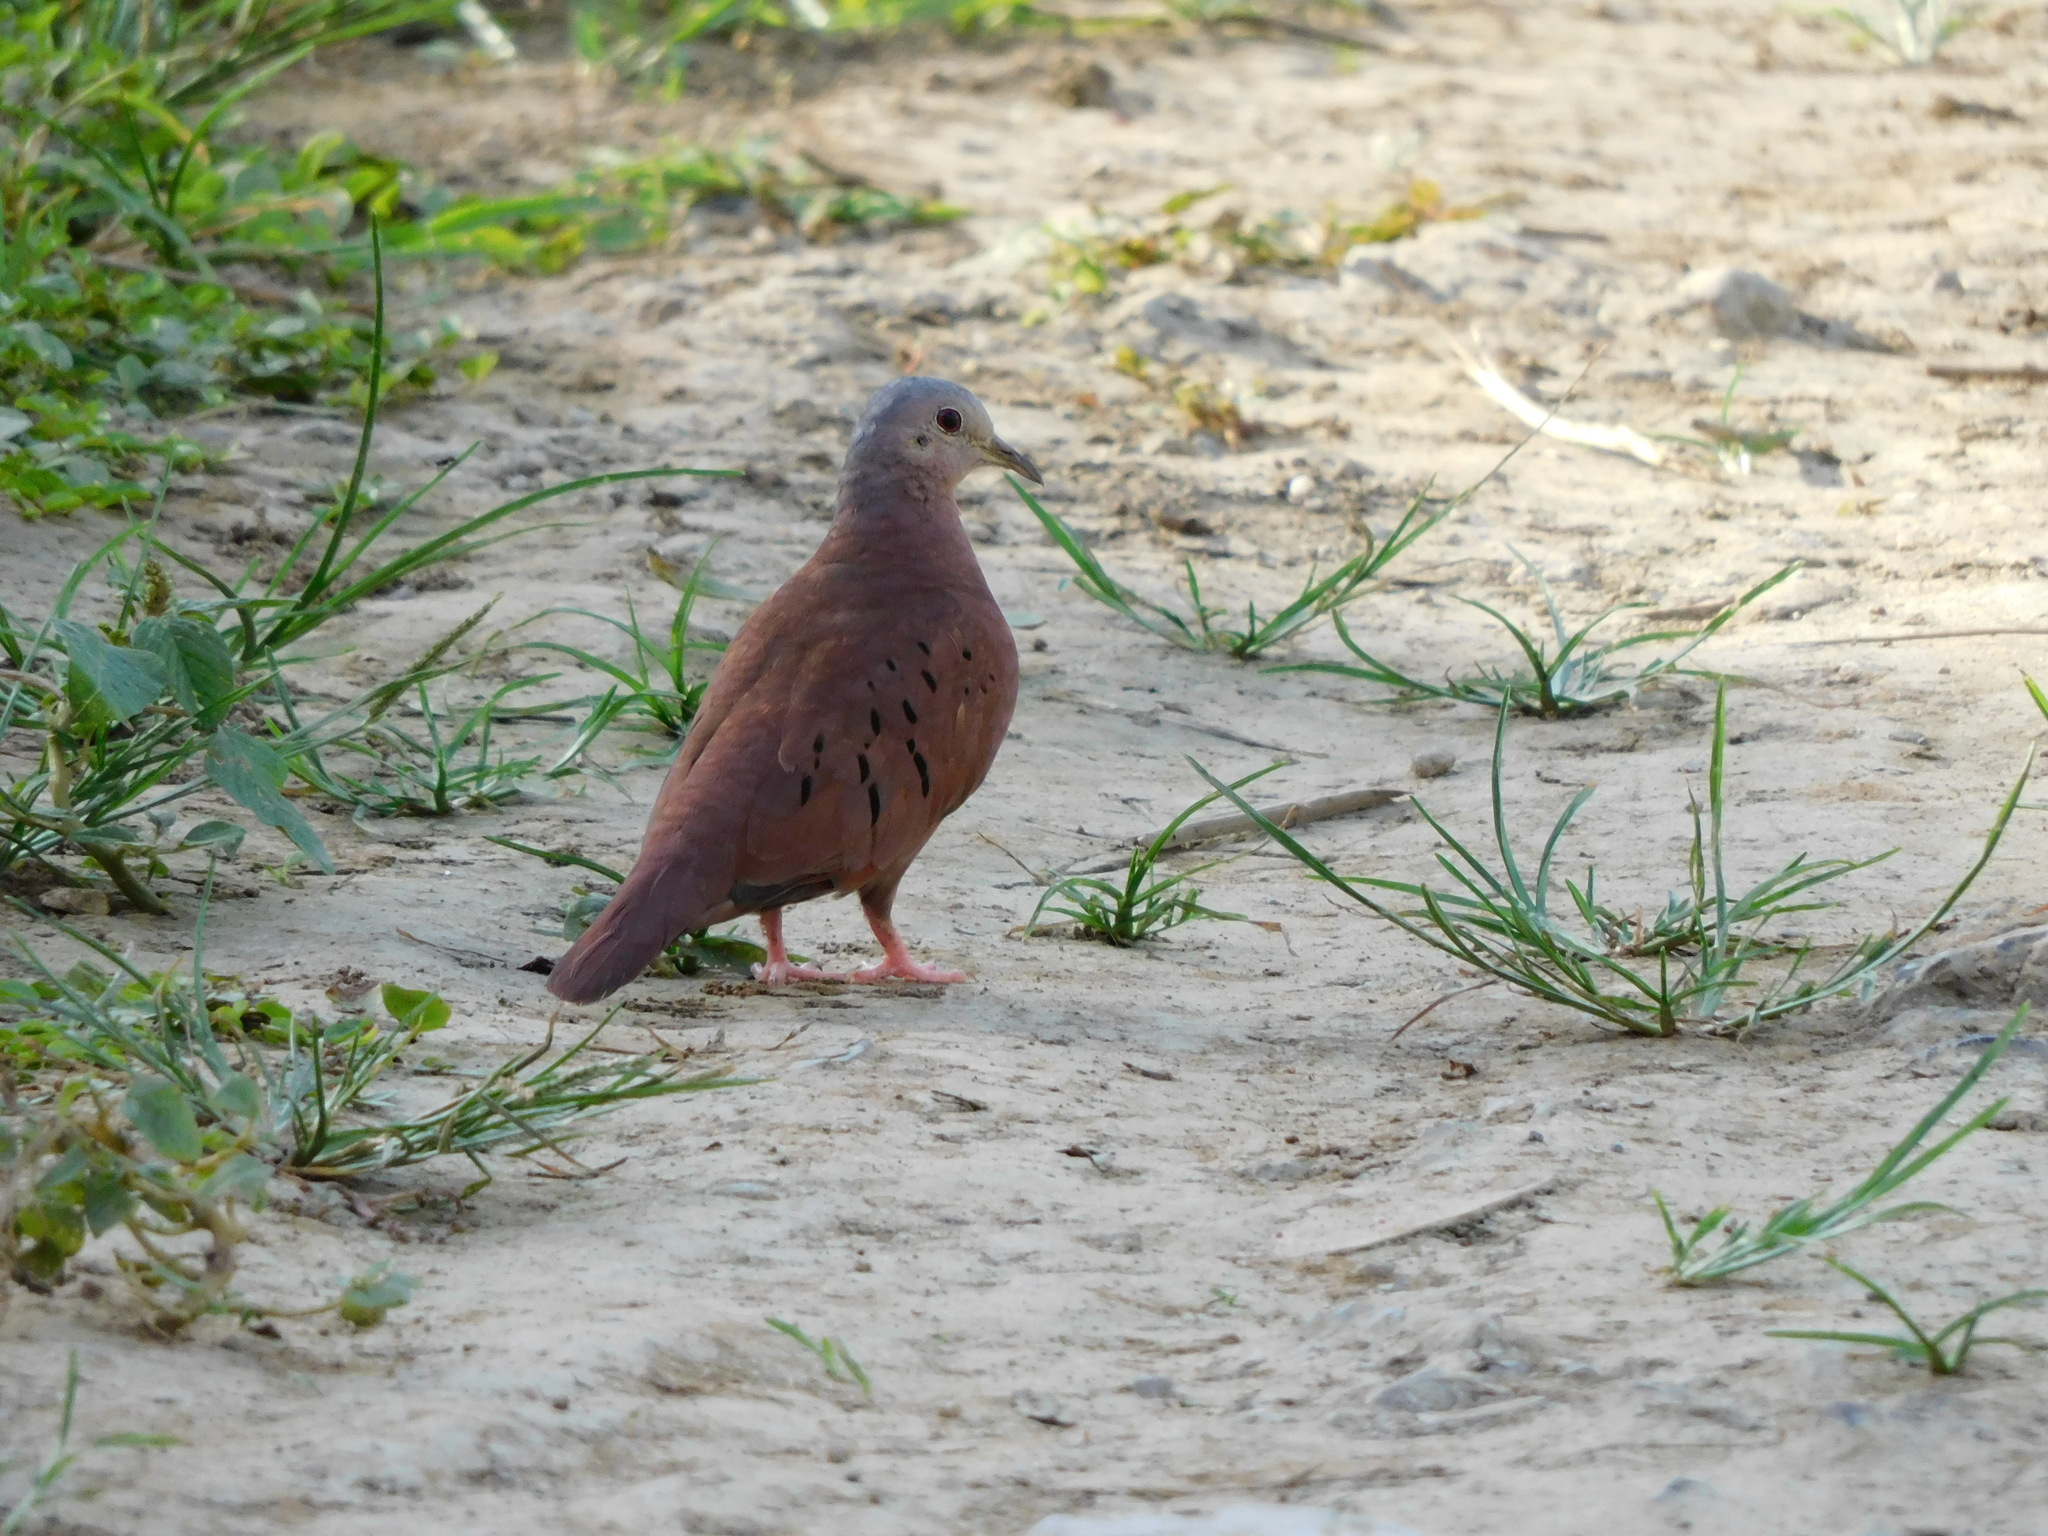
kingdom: Animalia
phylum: Chordata
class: Aves
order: Columbiformes
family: Columbidae
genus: Columbina
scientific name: Columbina talpacoti
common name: Ruddy ground dove
